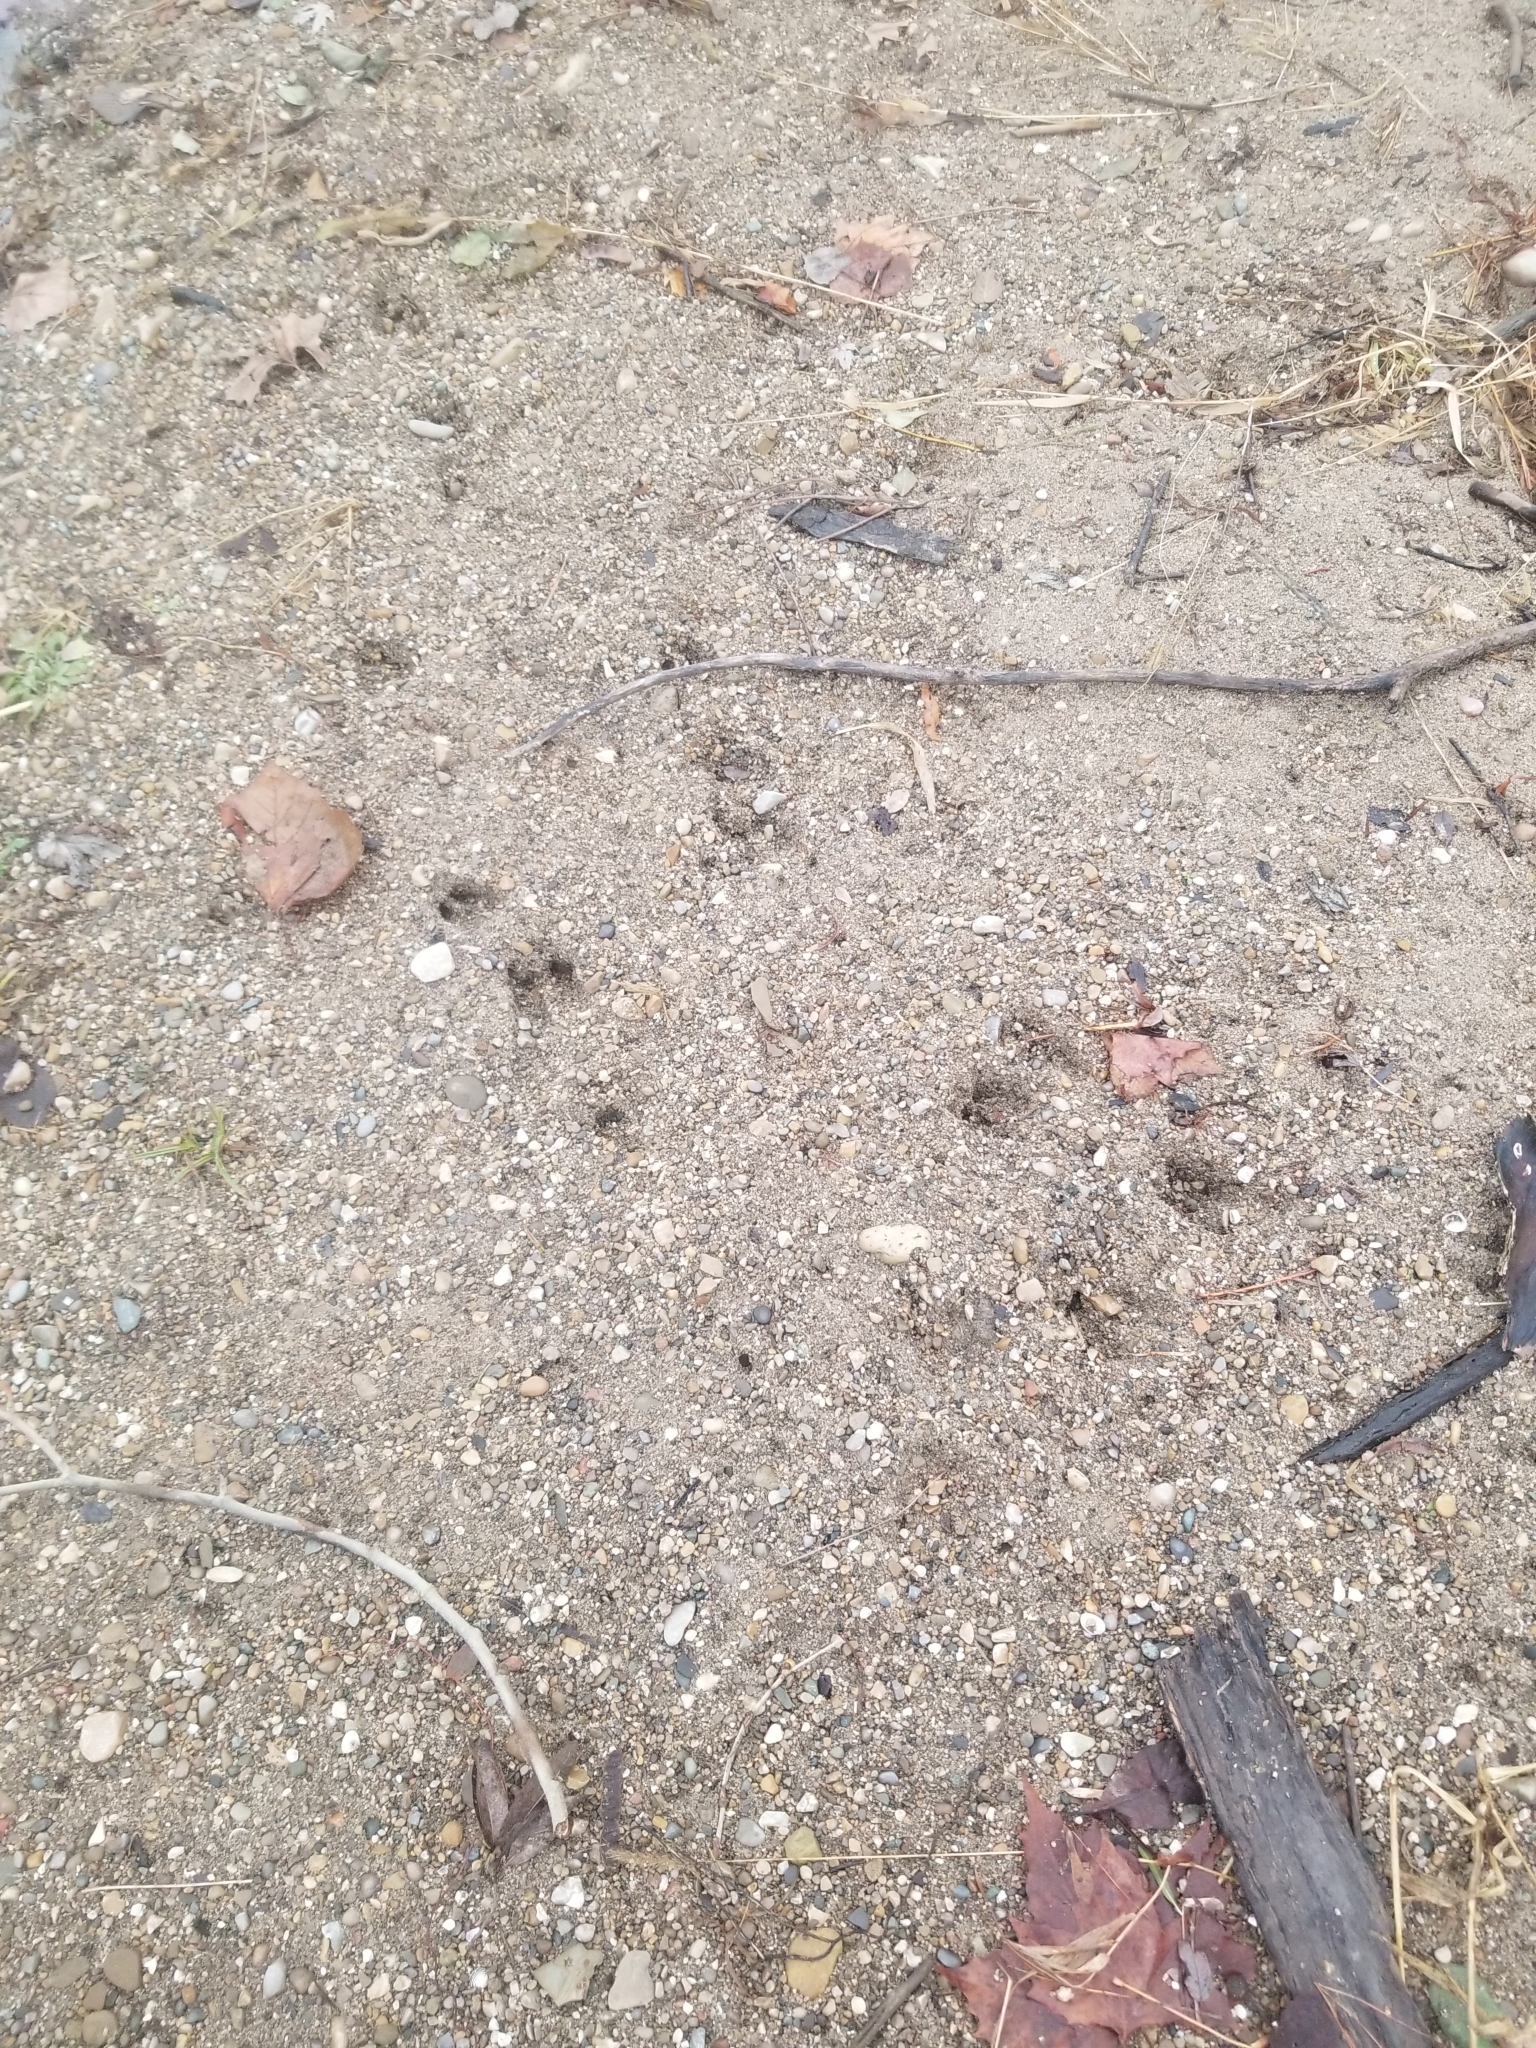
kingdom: Animalia
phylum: Chordata
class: Mammalia
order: Artiodactyla
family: Cervidae
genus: Odocoileus
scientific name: Odocoileus virginianus
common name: White-tailed deer
